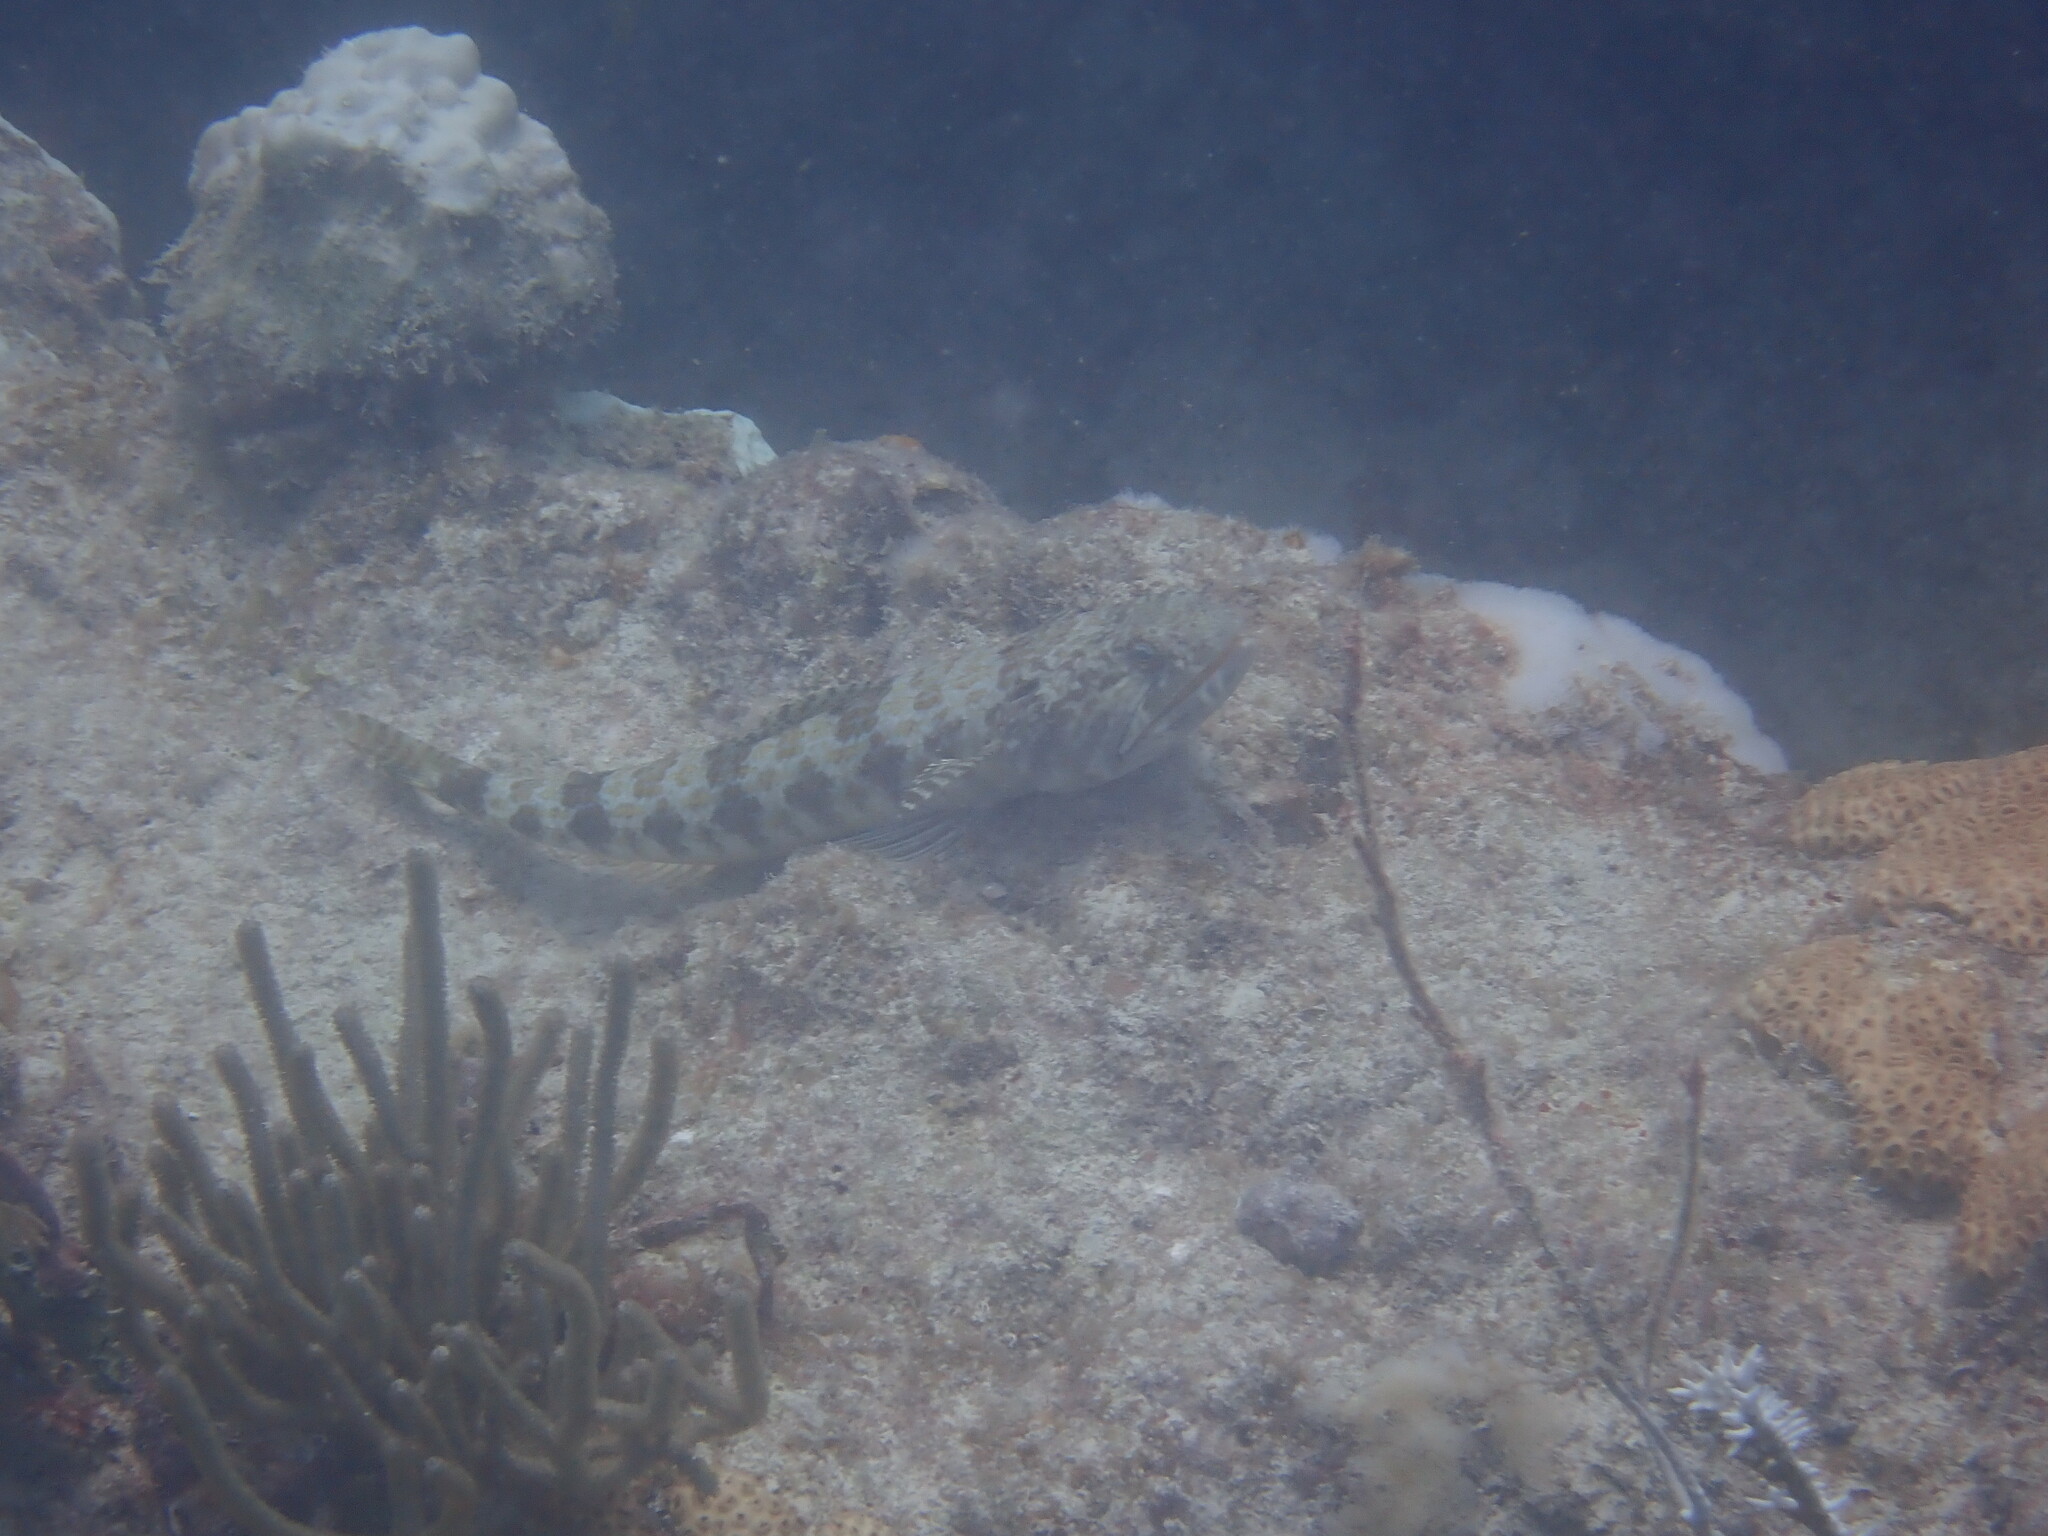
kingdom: Animalia
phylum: Chordata
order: Aulopiformes
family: Synodontidae
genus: Synodus
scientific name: Synodus intermedius
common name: Sand diver
